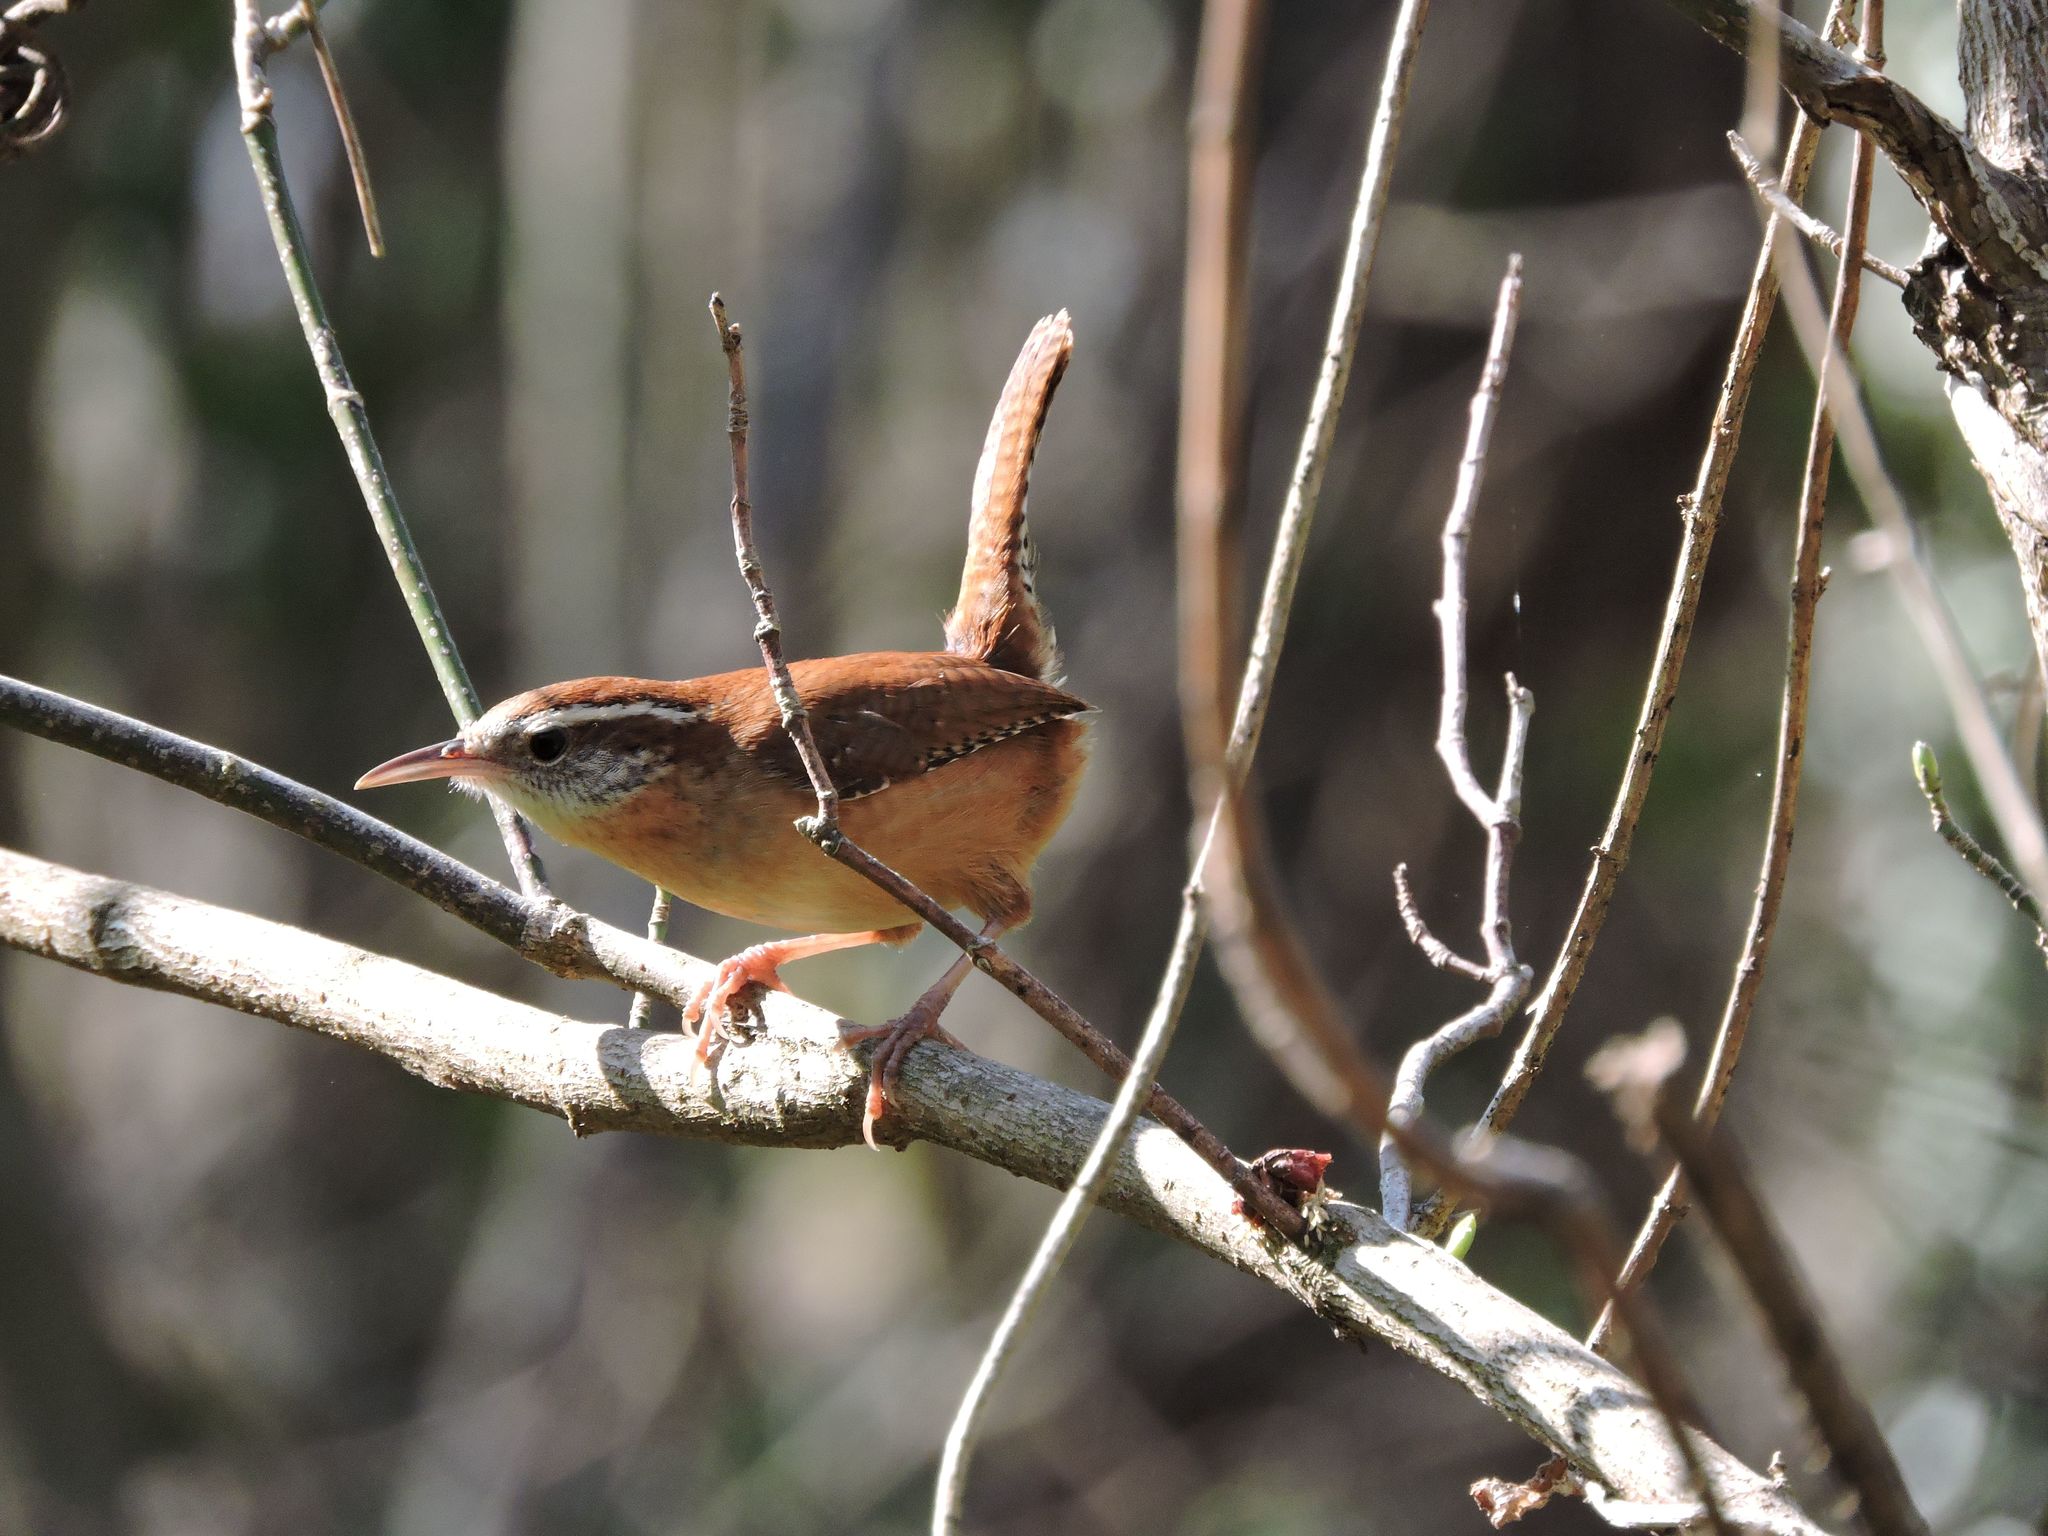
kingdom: Animalia
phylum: Chordata
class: Aves
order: Passeriformes
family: Troglodytidae
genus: Thryothorus
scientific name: Thryothorus ludovicianus
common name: Carolina wren
